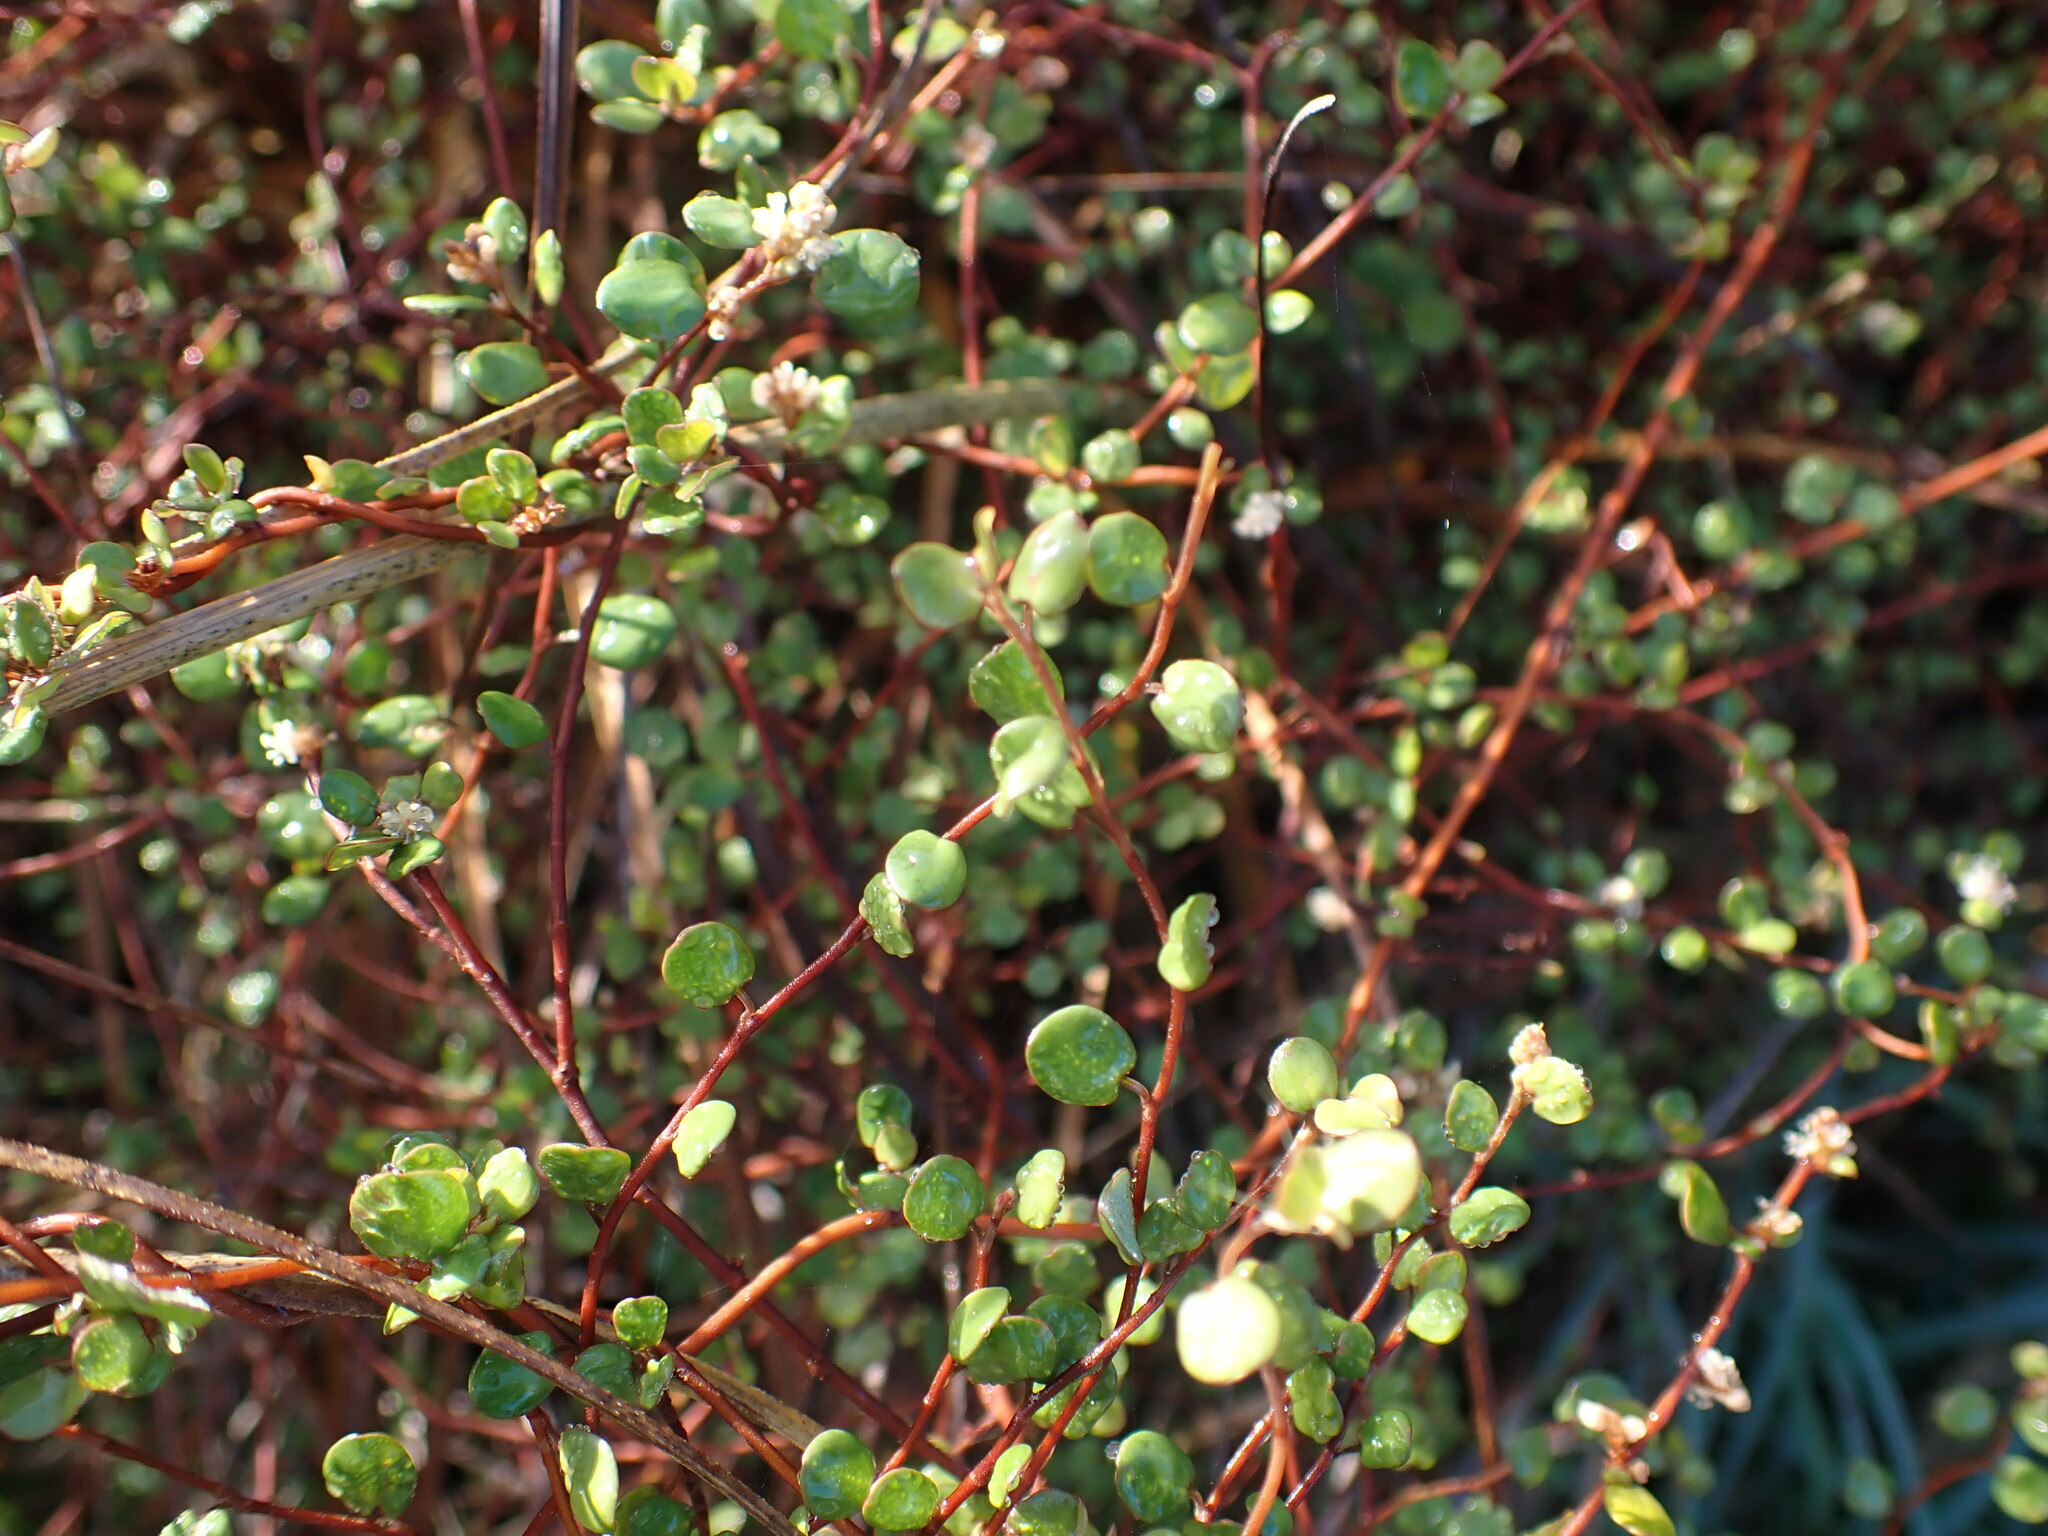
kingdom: Plantae
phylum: Tracheophyta
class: Magnoliopsida
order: Caryophyllales
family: Polygonaceae
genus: Muehlenbeckia
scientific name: Muehlenbeckia complexa
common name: Wireplant
